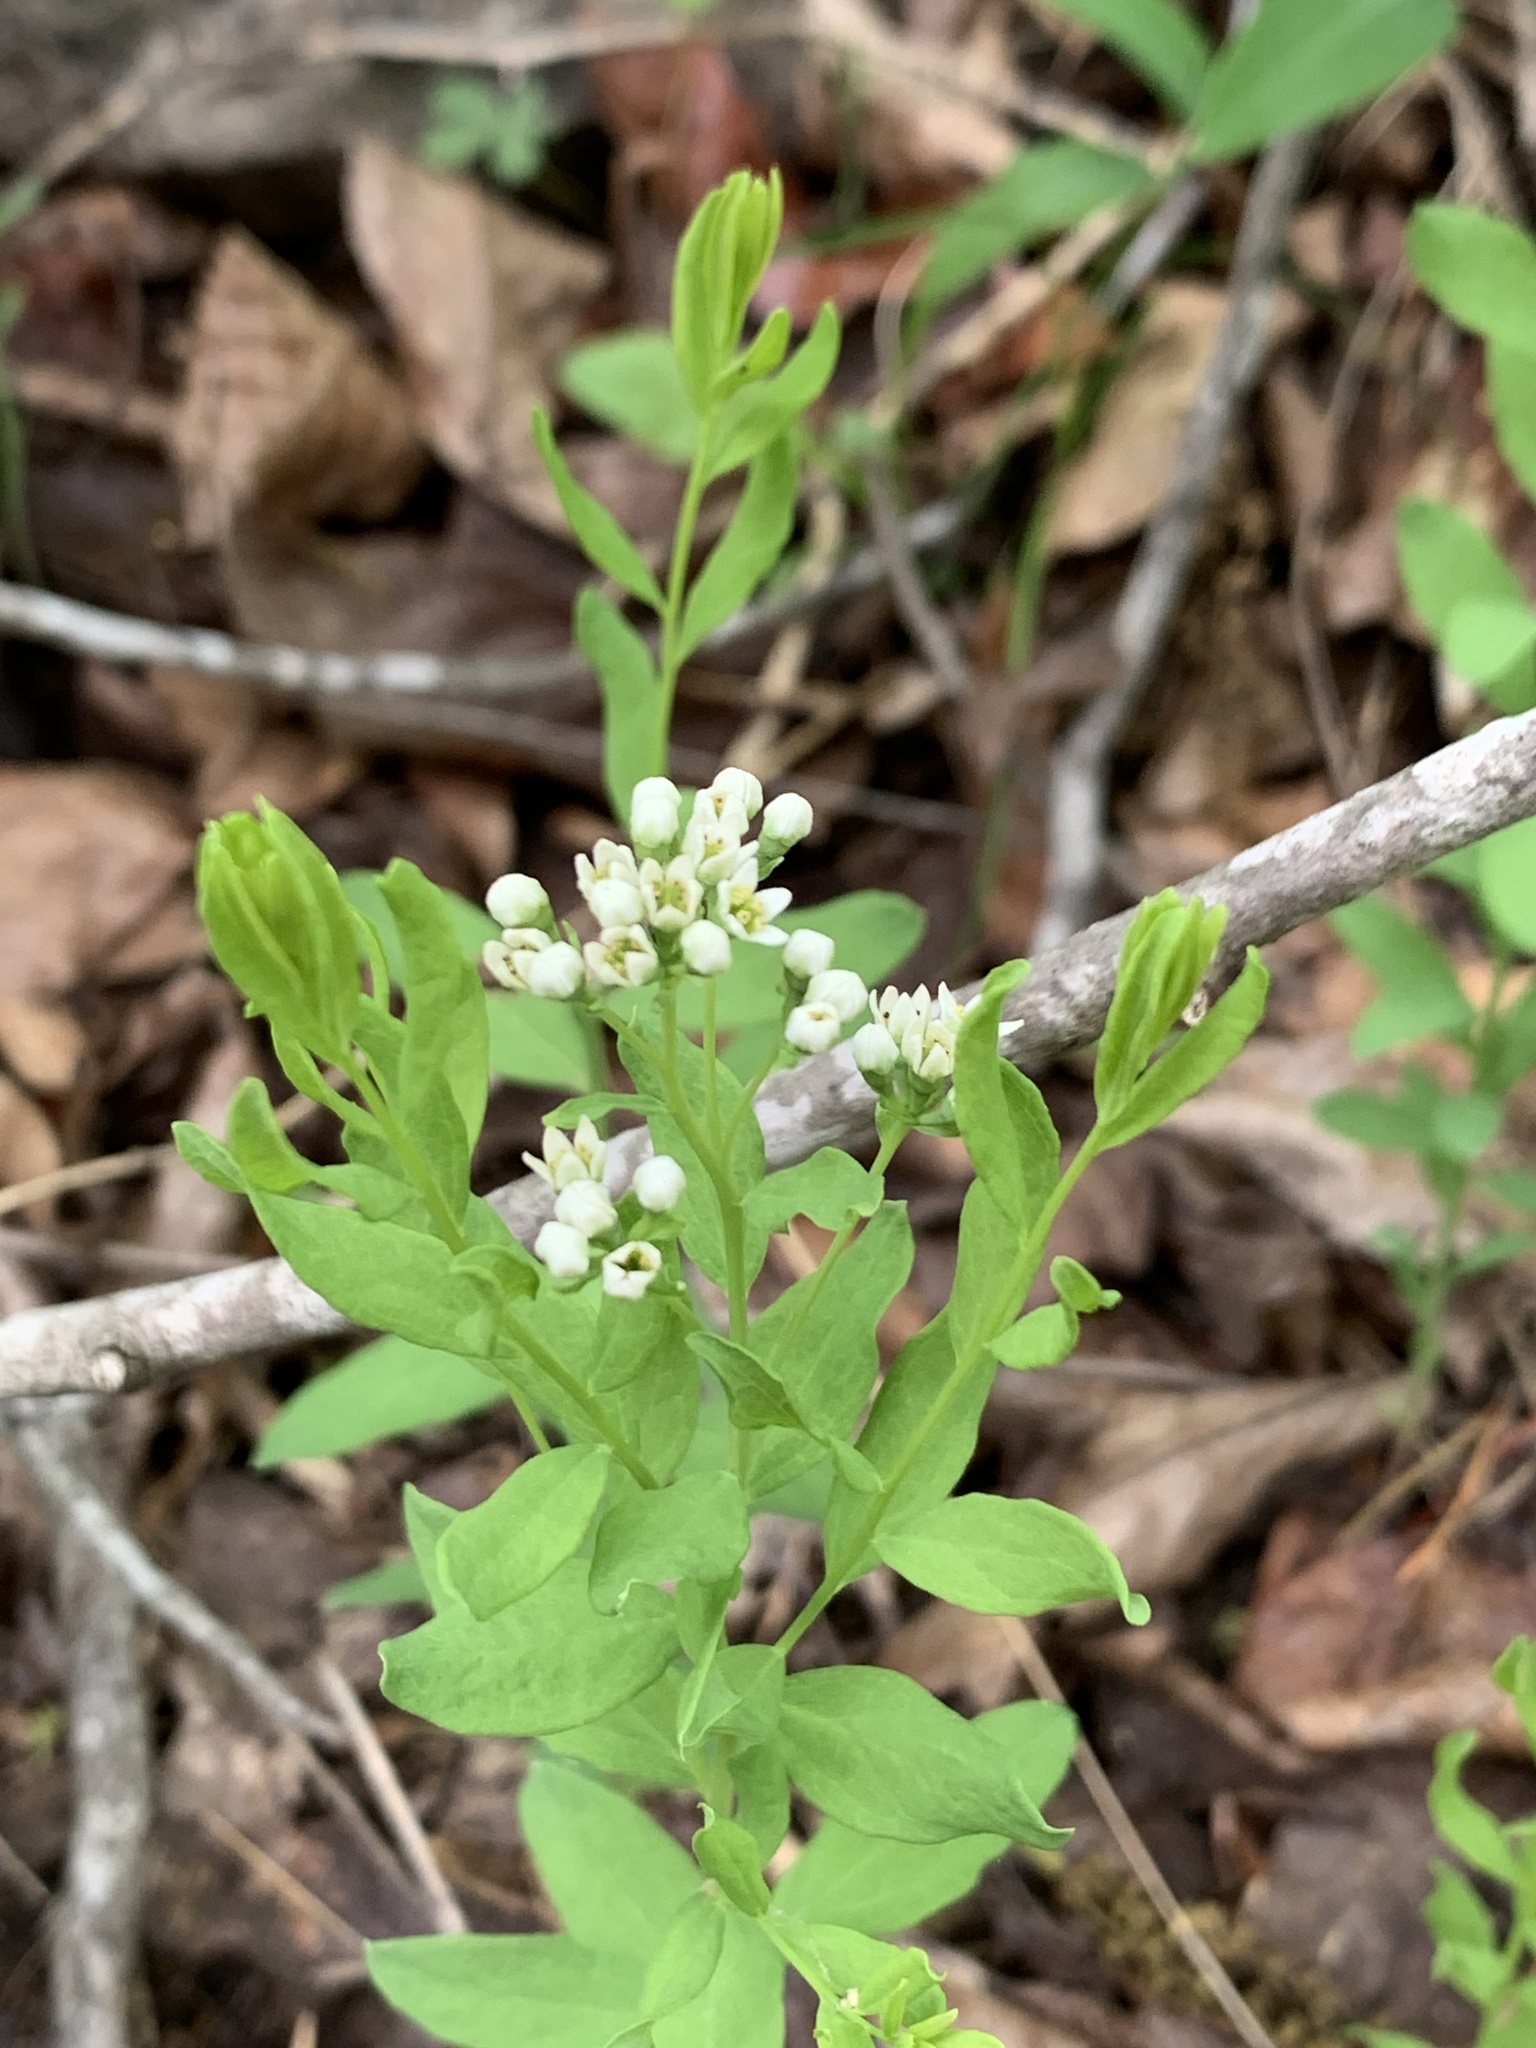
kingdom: Plantae
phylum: Tracheophyta
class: Magnoliopsida
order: Santalales
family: Comandraceae
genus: Comandra
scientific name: Comandra umbellata
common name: Bastard toadflax
